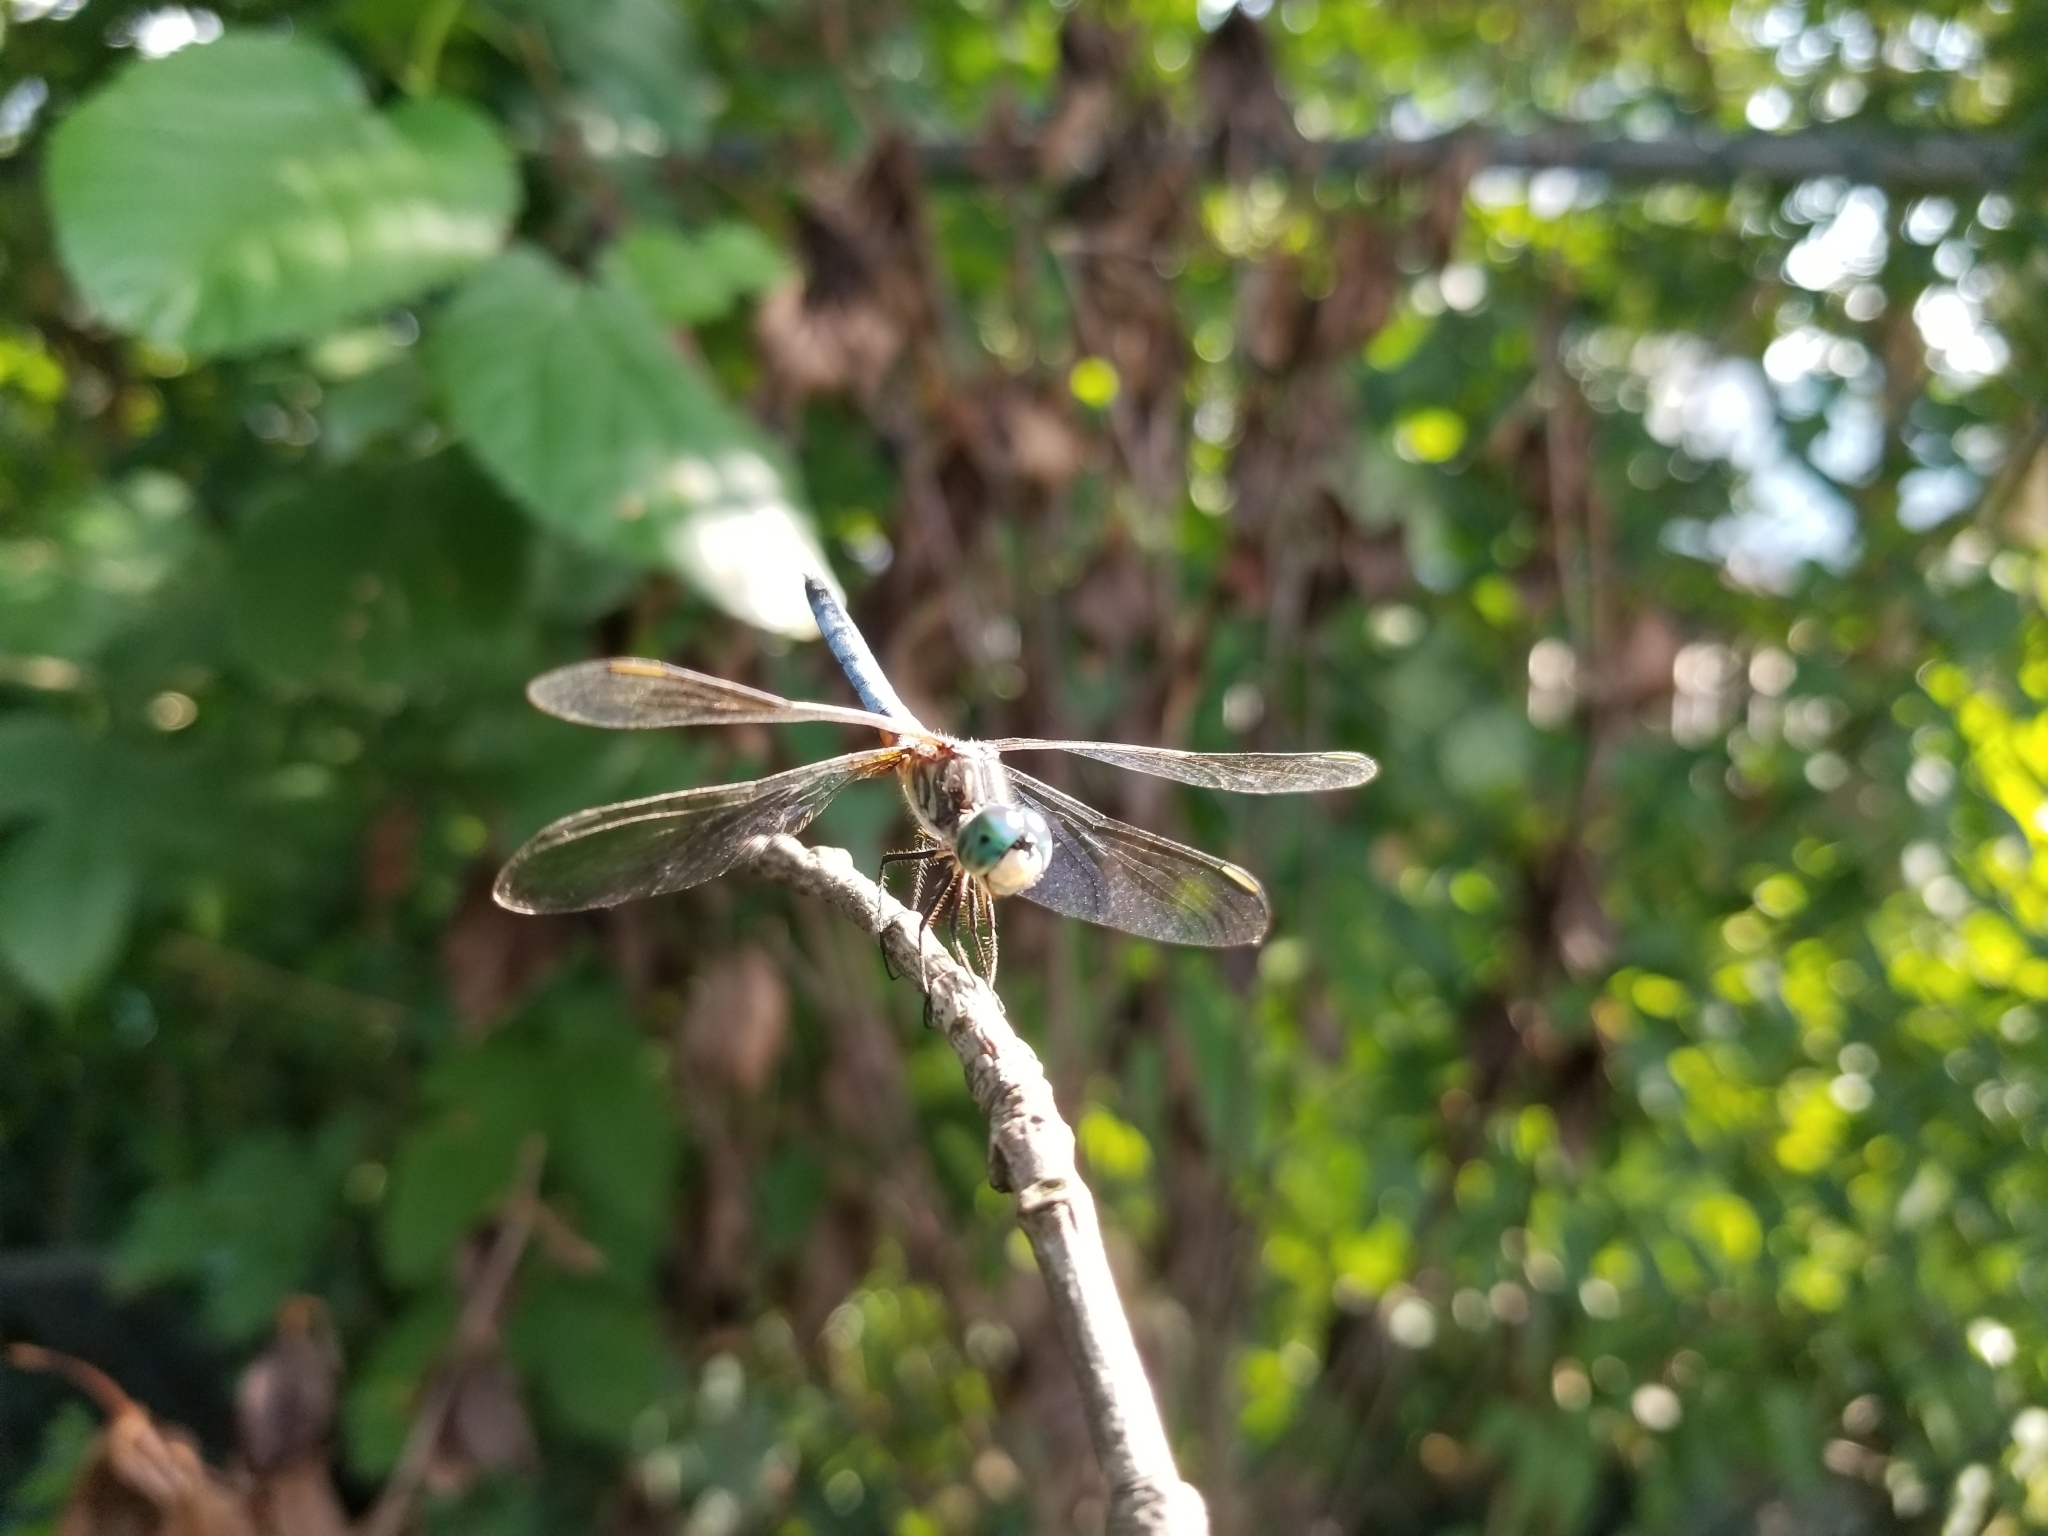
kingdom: Animalia
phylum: Arthropoda
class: Insecta
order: Odonata
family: Libellulidae
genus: Pachydiplax
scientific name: Pachydiplax longipennis
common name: Blue dasher
